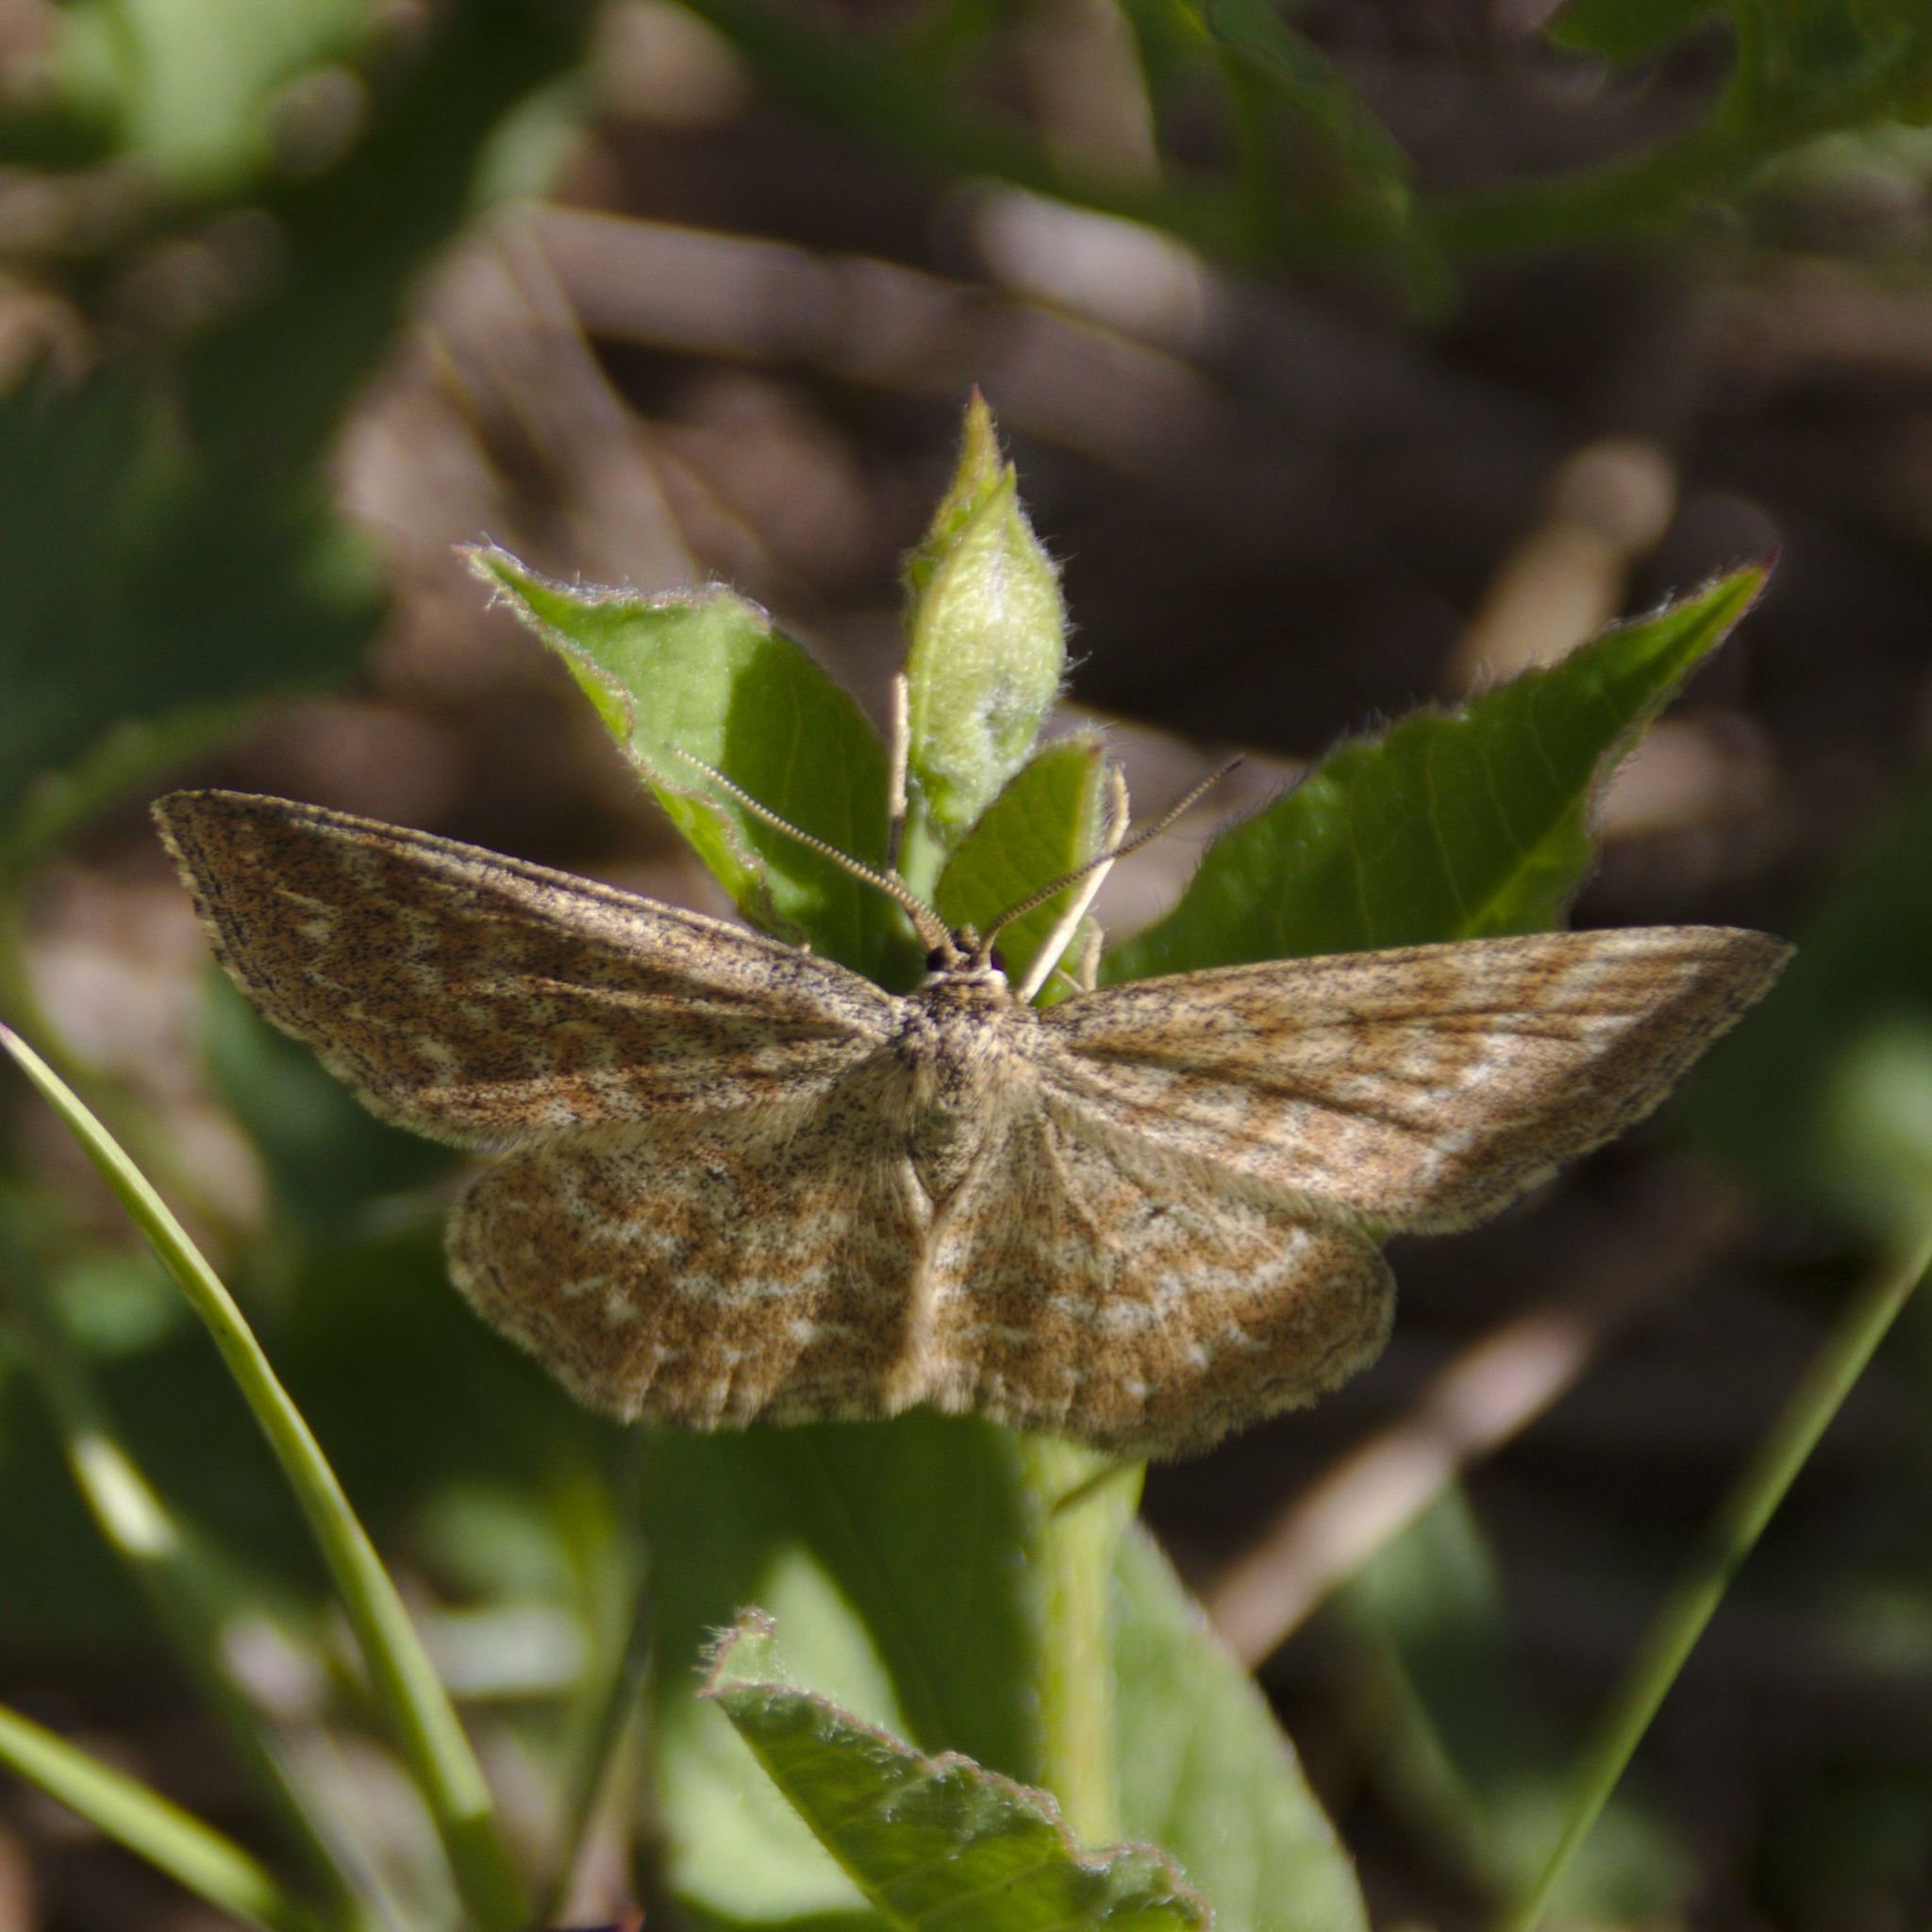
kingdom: Animalia
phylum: Arthropoda
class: Insecta
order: Lepidoptera
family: Geometridae
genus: Scopula
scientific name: Scopula immorata
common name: Lewes wave
